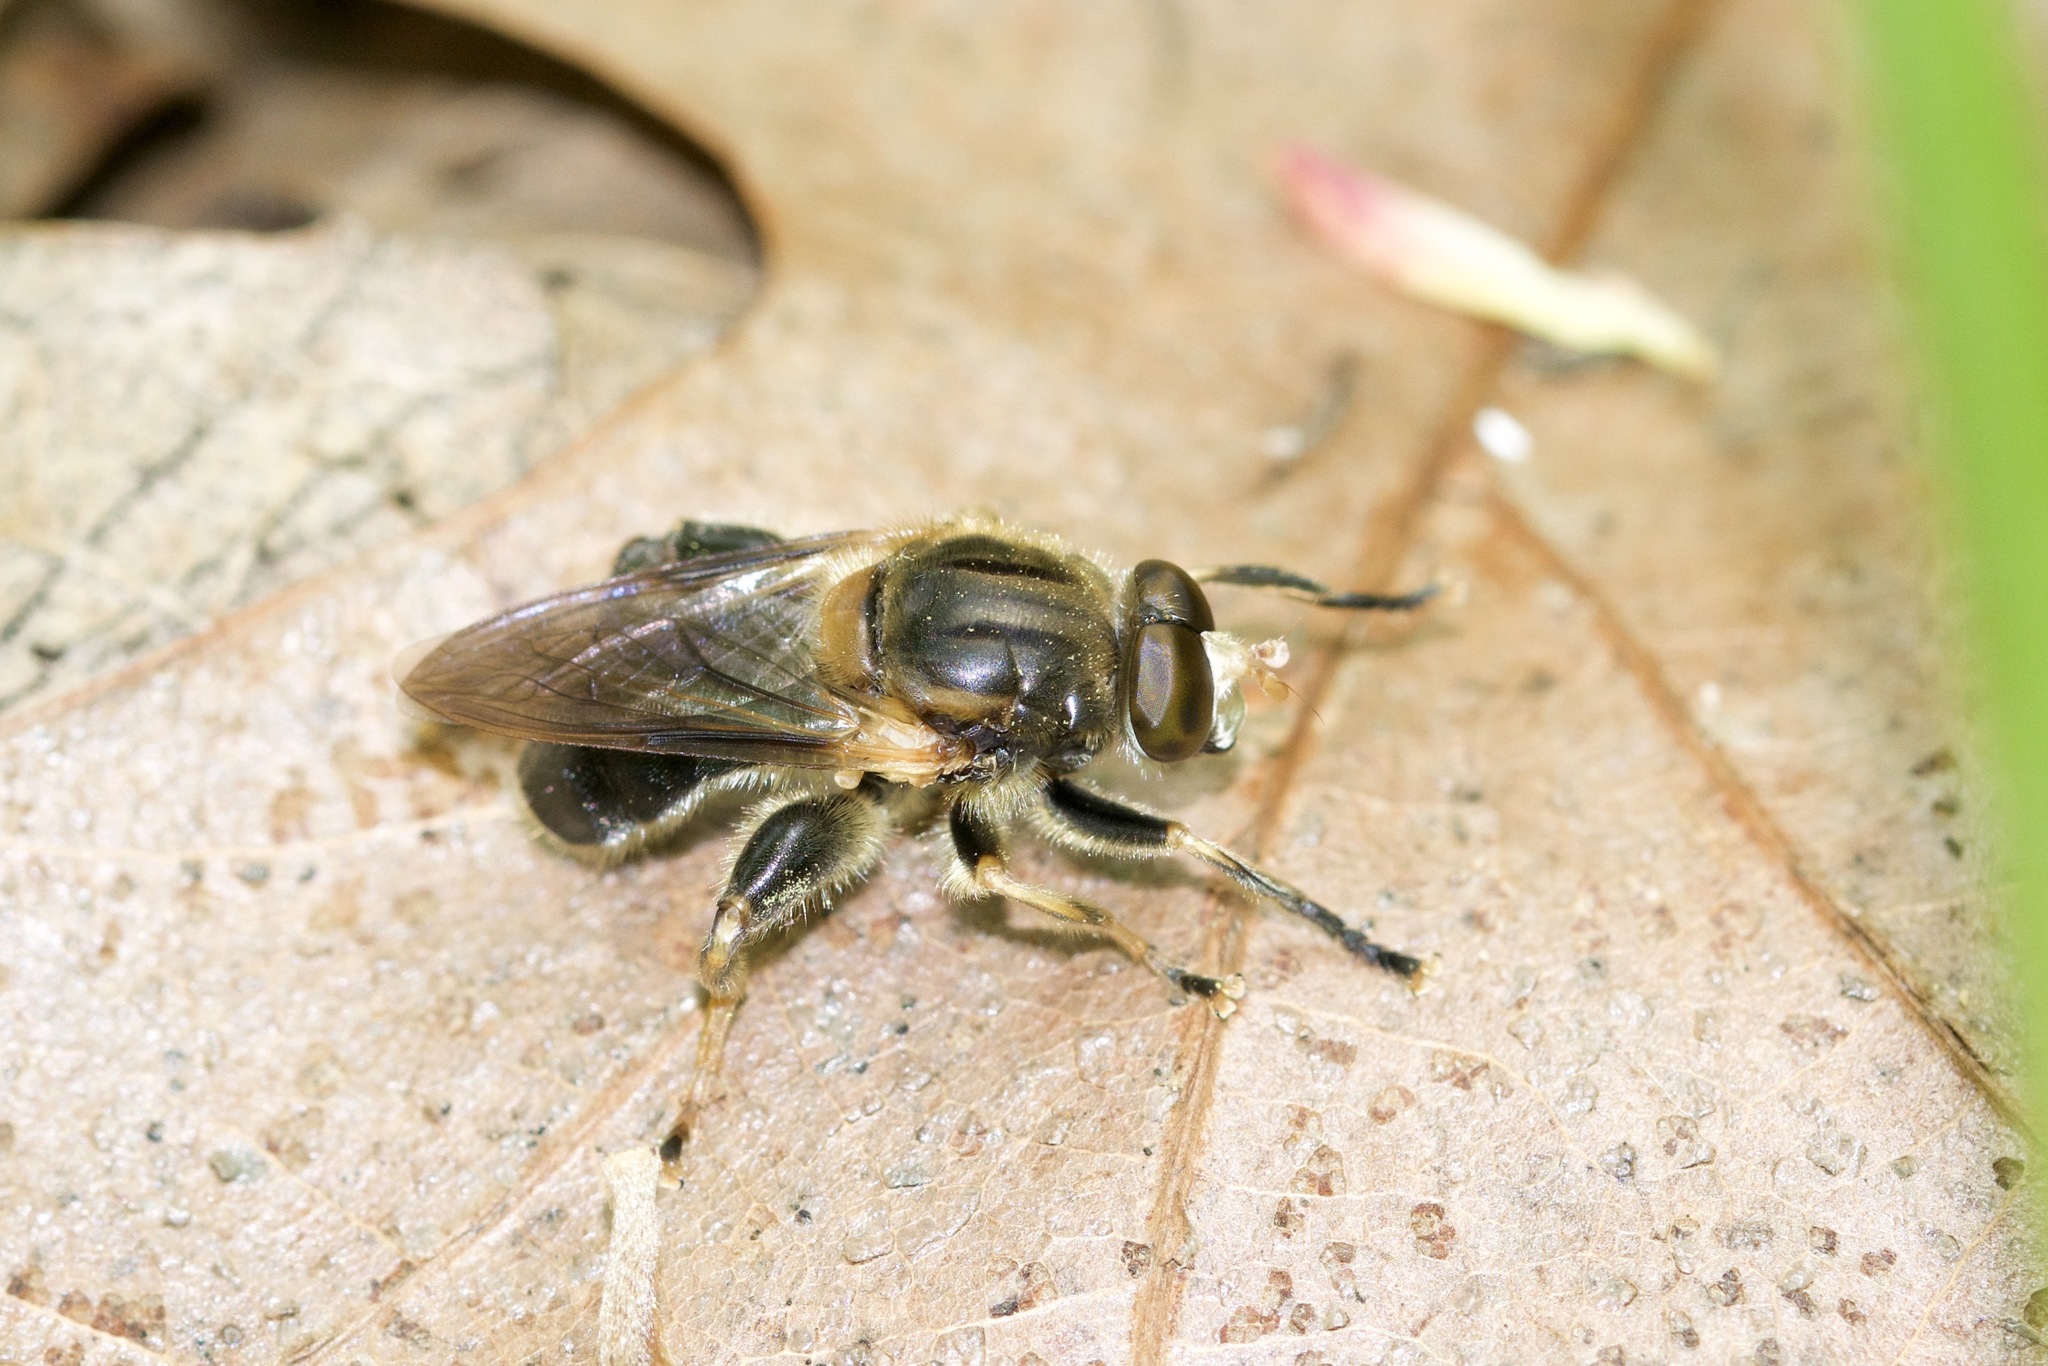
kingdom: Animalia
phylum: Arthropoda
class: Insecta
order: Diptera
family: Syrphidae
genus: Teuchocnemis
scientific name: Teuchocnemis lituratus
